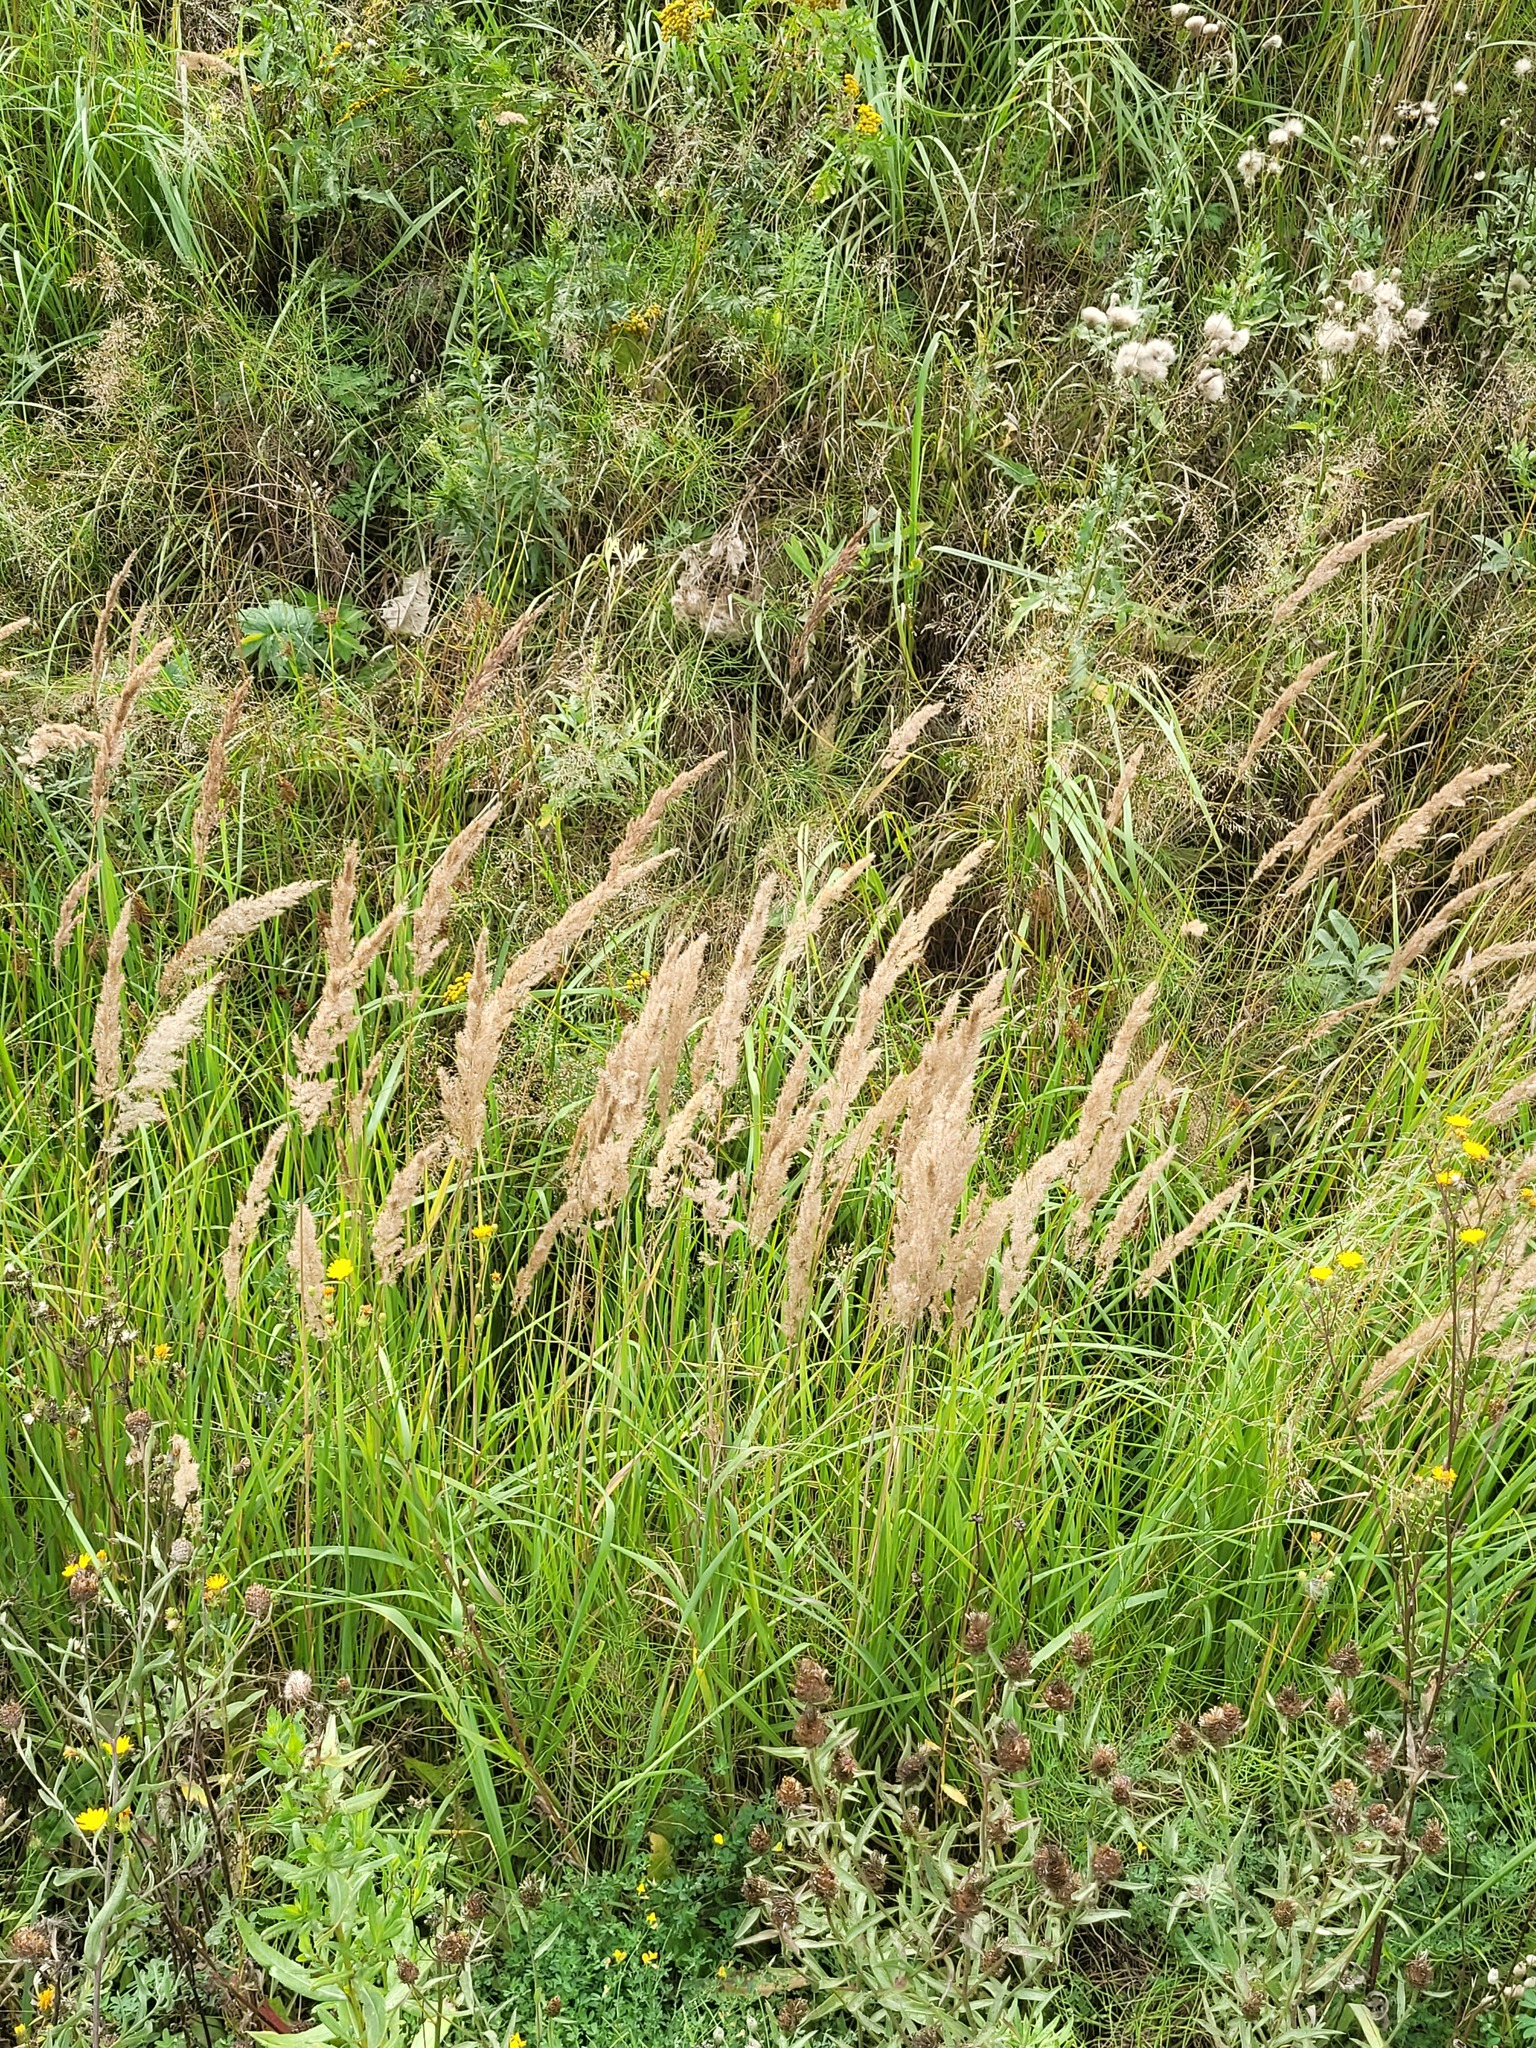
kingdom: Plantae
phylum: Tracheophyta
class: Liliopsida
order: Poales
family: Poaceae
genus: Calamagrostis
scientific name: Calamagrostis epigejos
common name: Wood small-reed
